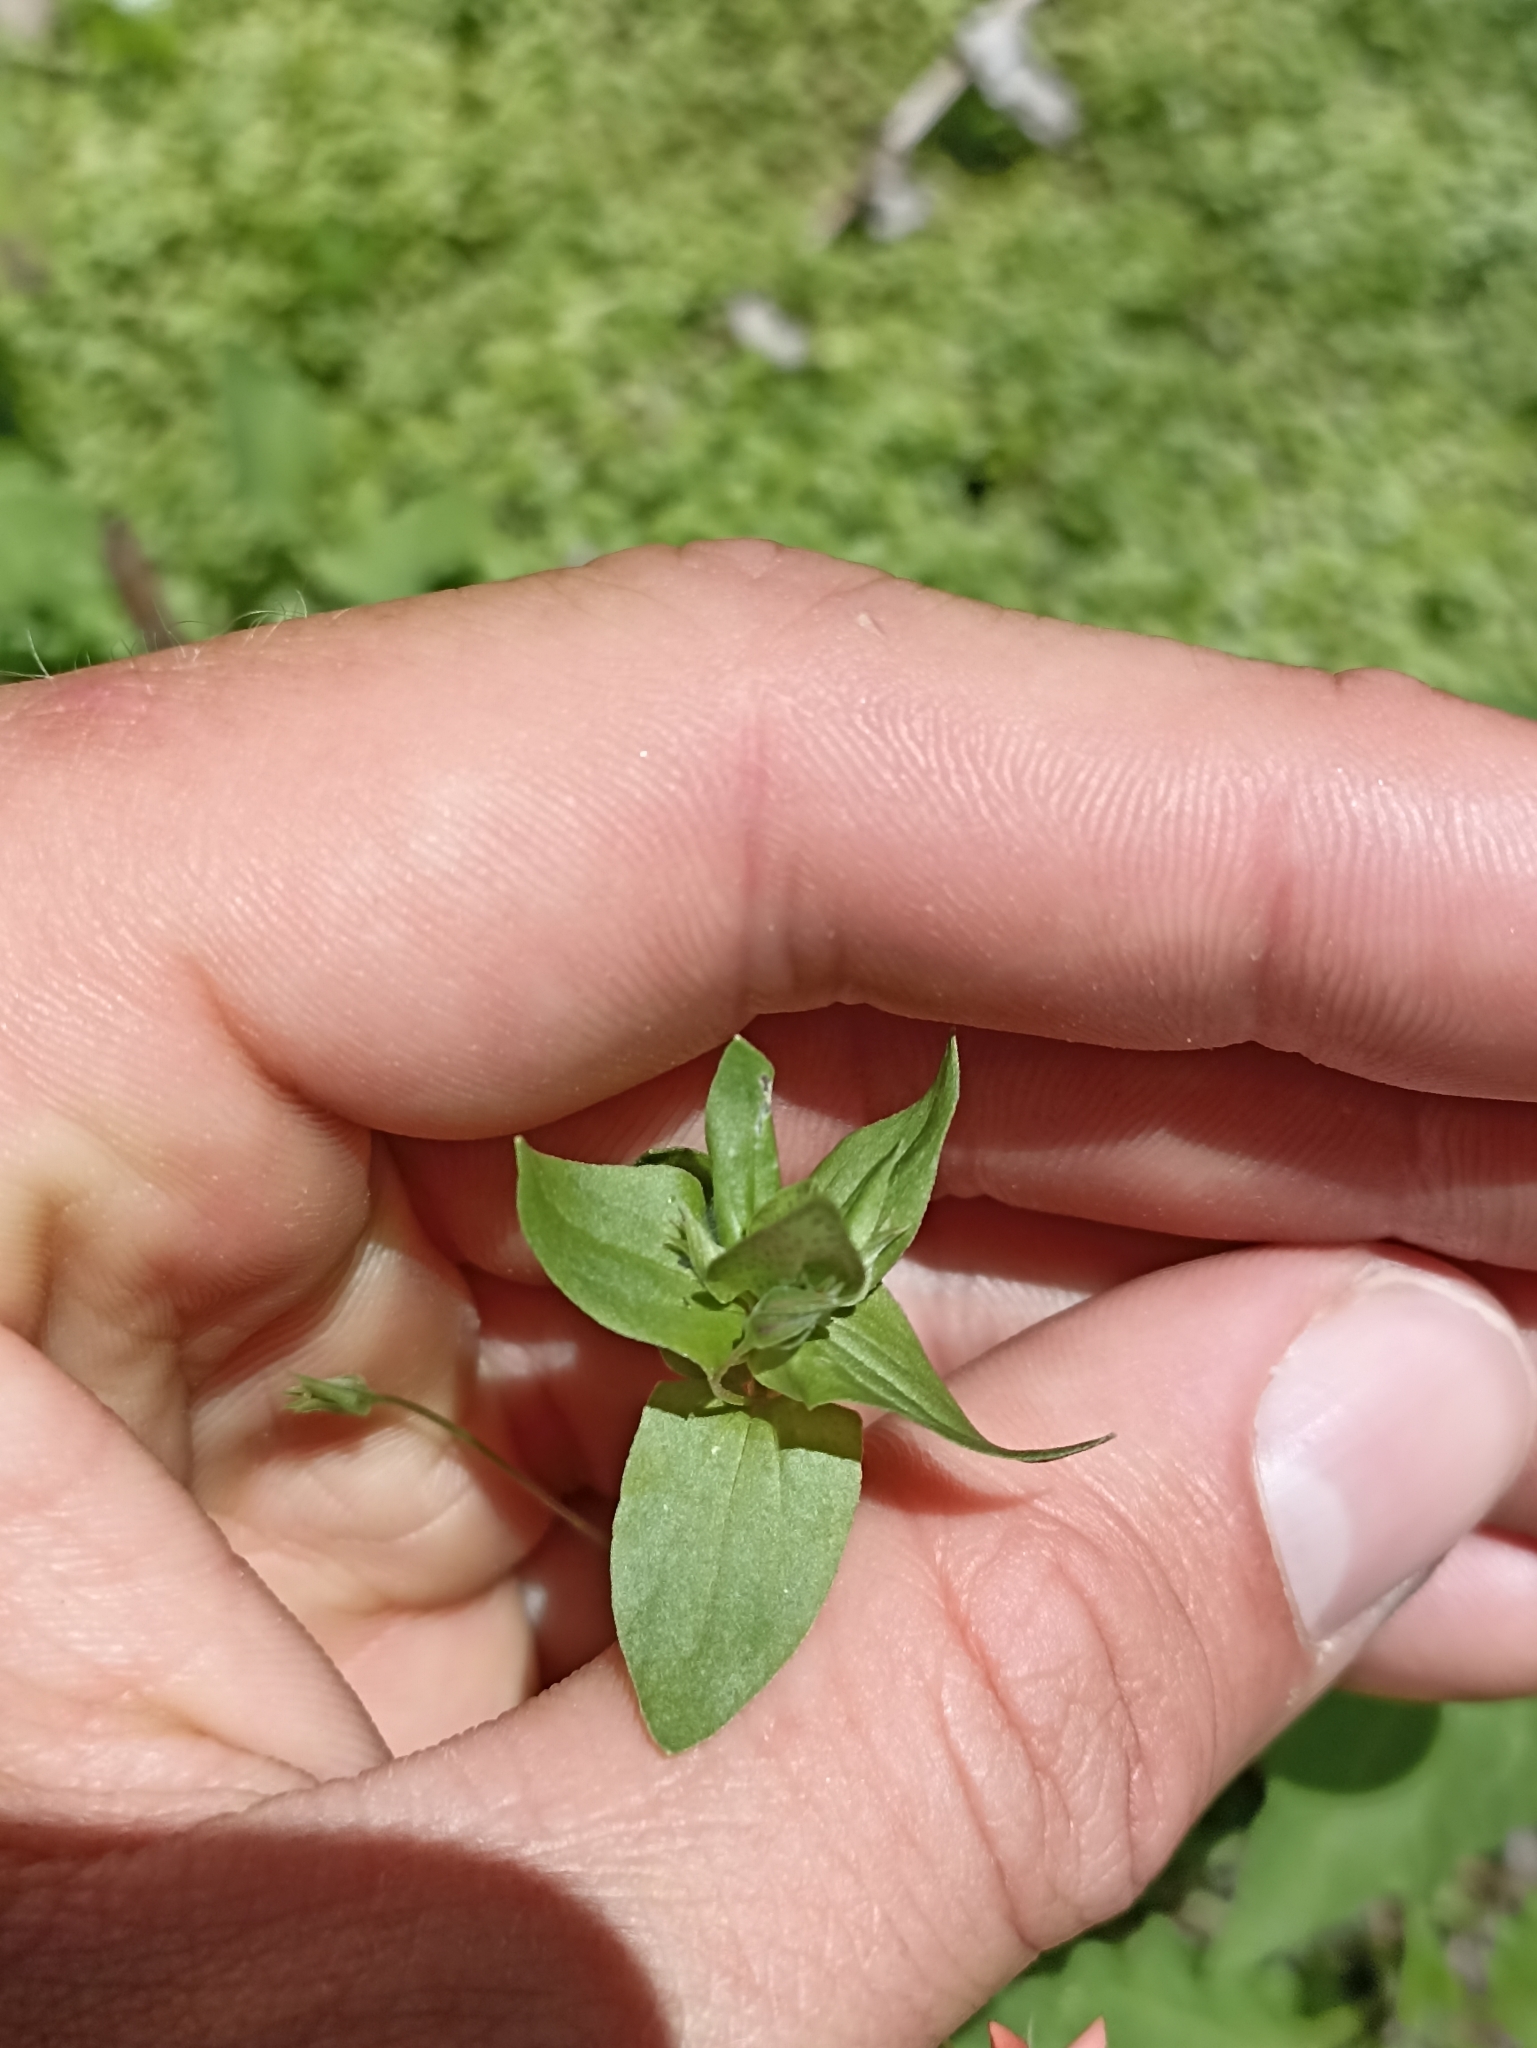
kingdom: Plantae
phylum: Tracheophyta
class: Magnoliopsida
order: Ericales
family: Primulaceae
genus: Lysimachia
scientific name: Lysimachia arvensis
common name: Scarlet pimpernel
